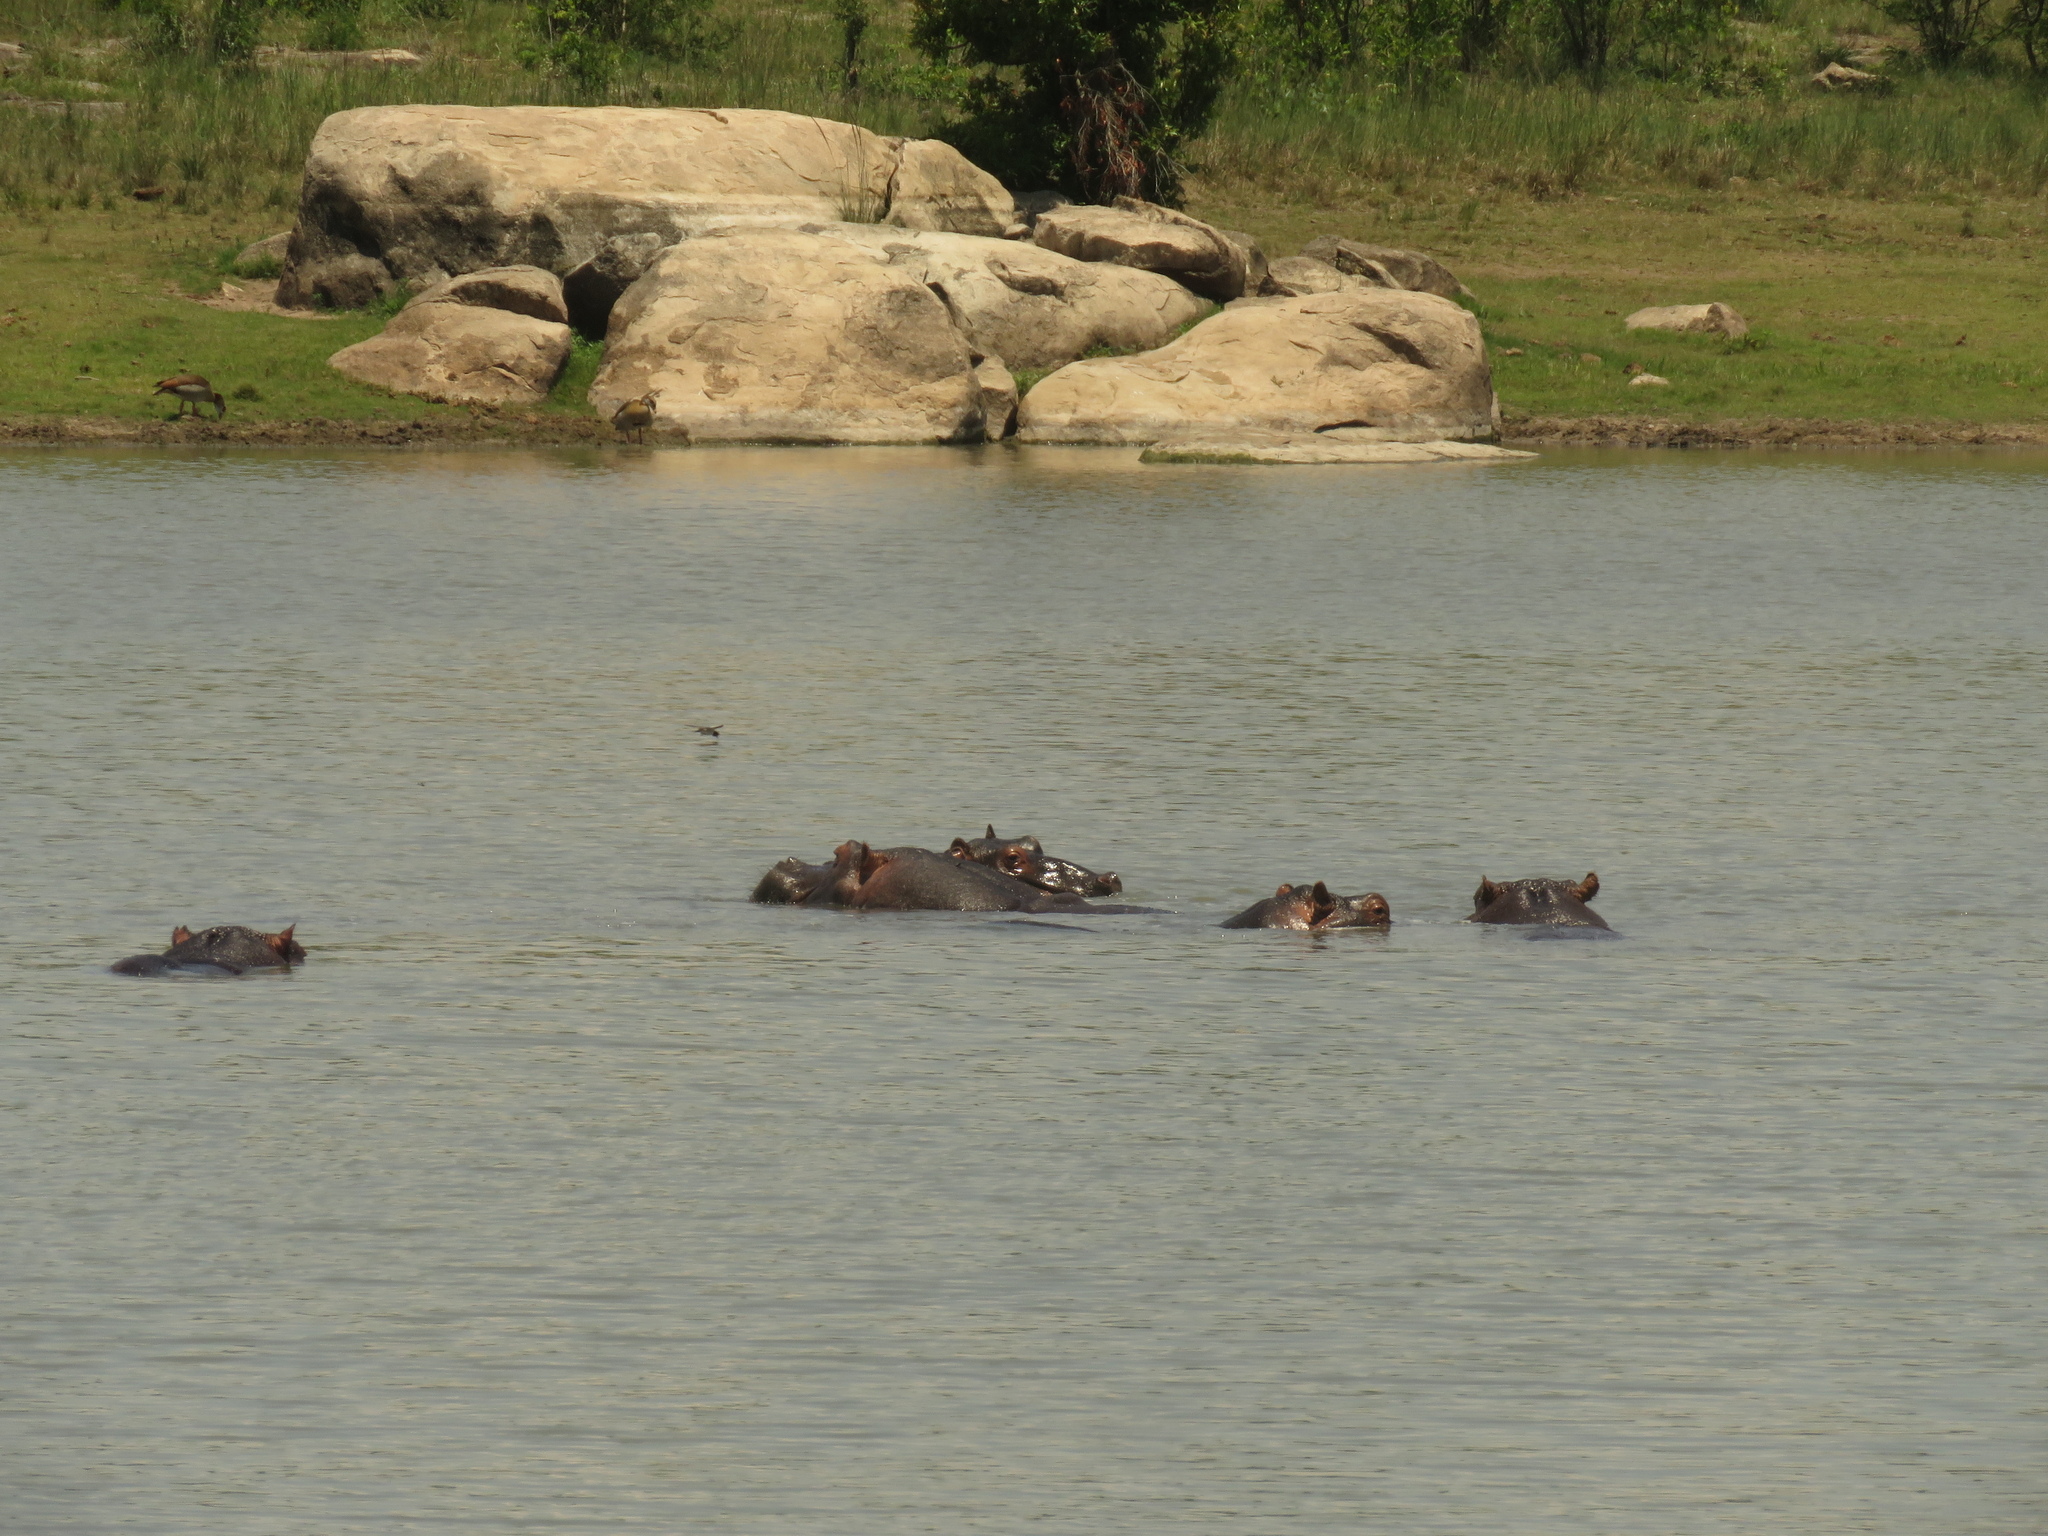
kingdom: Animalia
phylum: Chordata
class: Mammalia
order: Artiodactyla
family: Hippopotamidae
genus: Hippopotamus
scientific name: Hippopotamus amphibius
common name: Common hippopotamus
